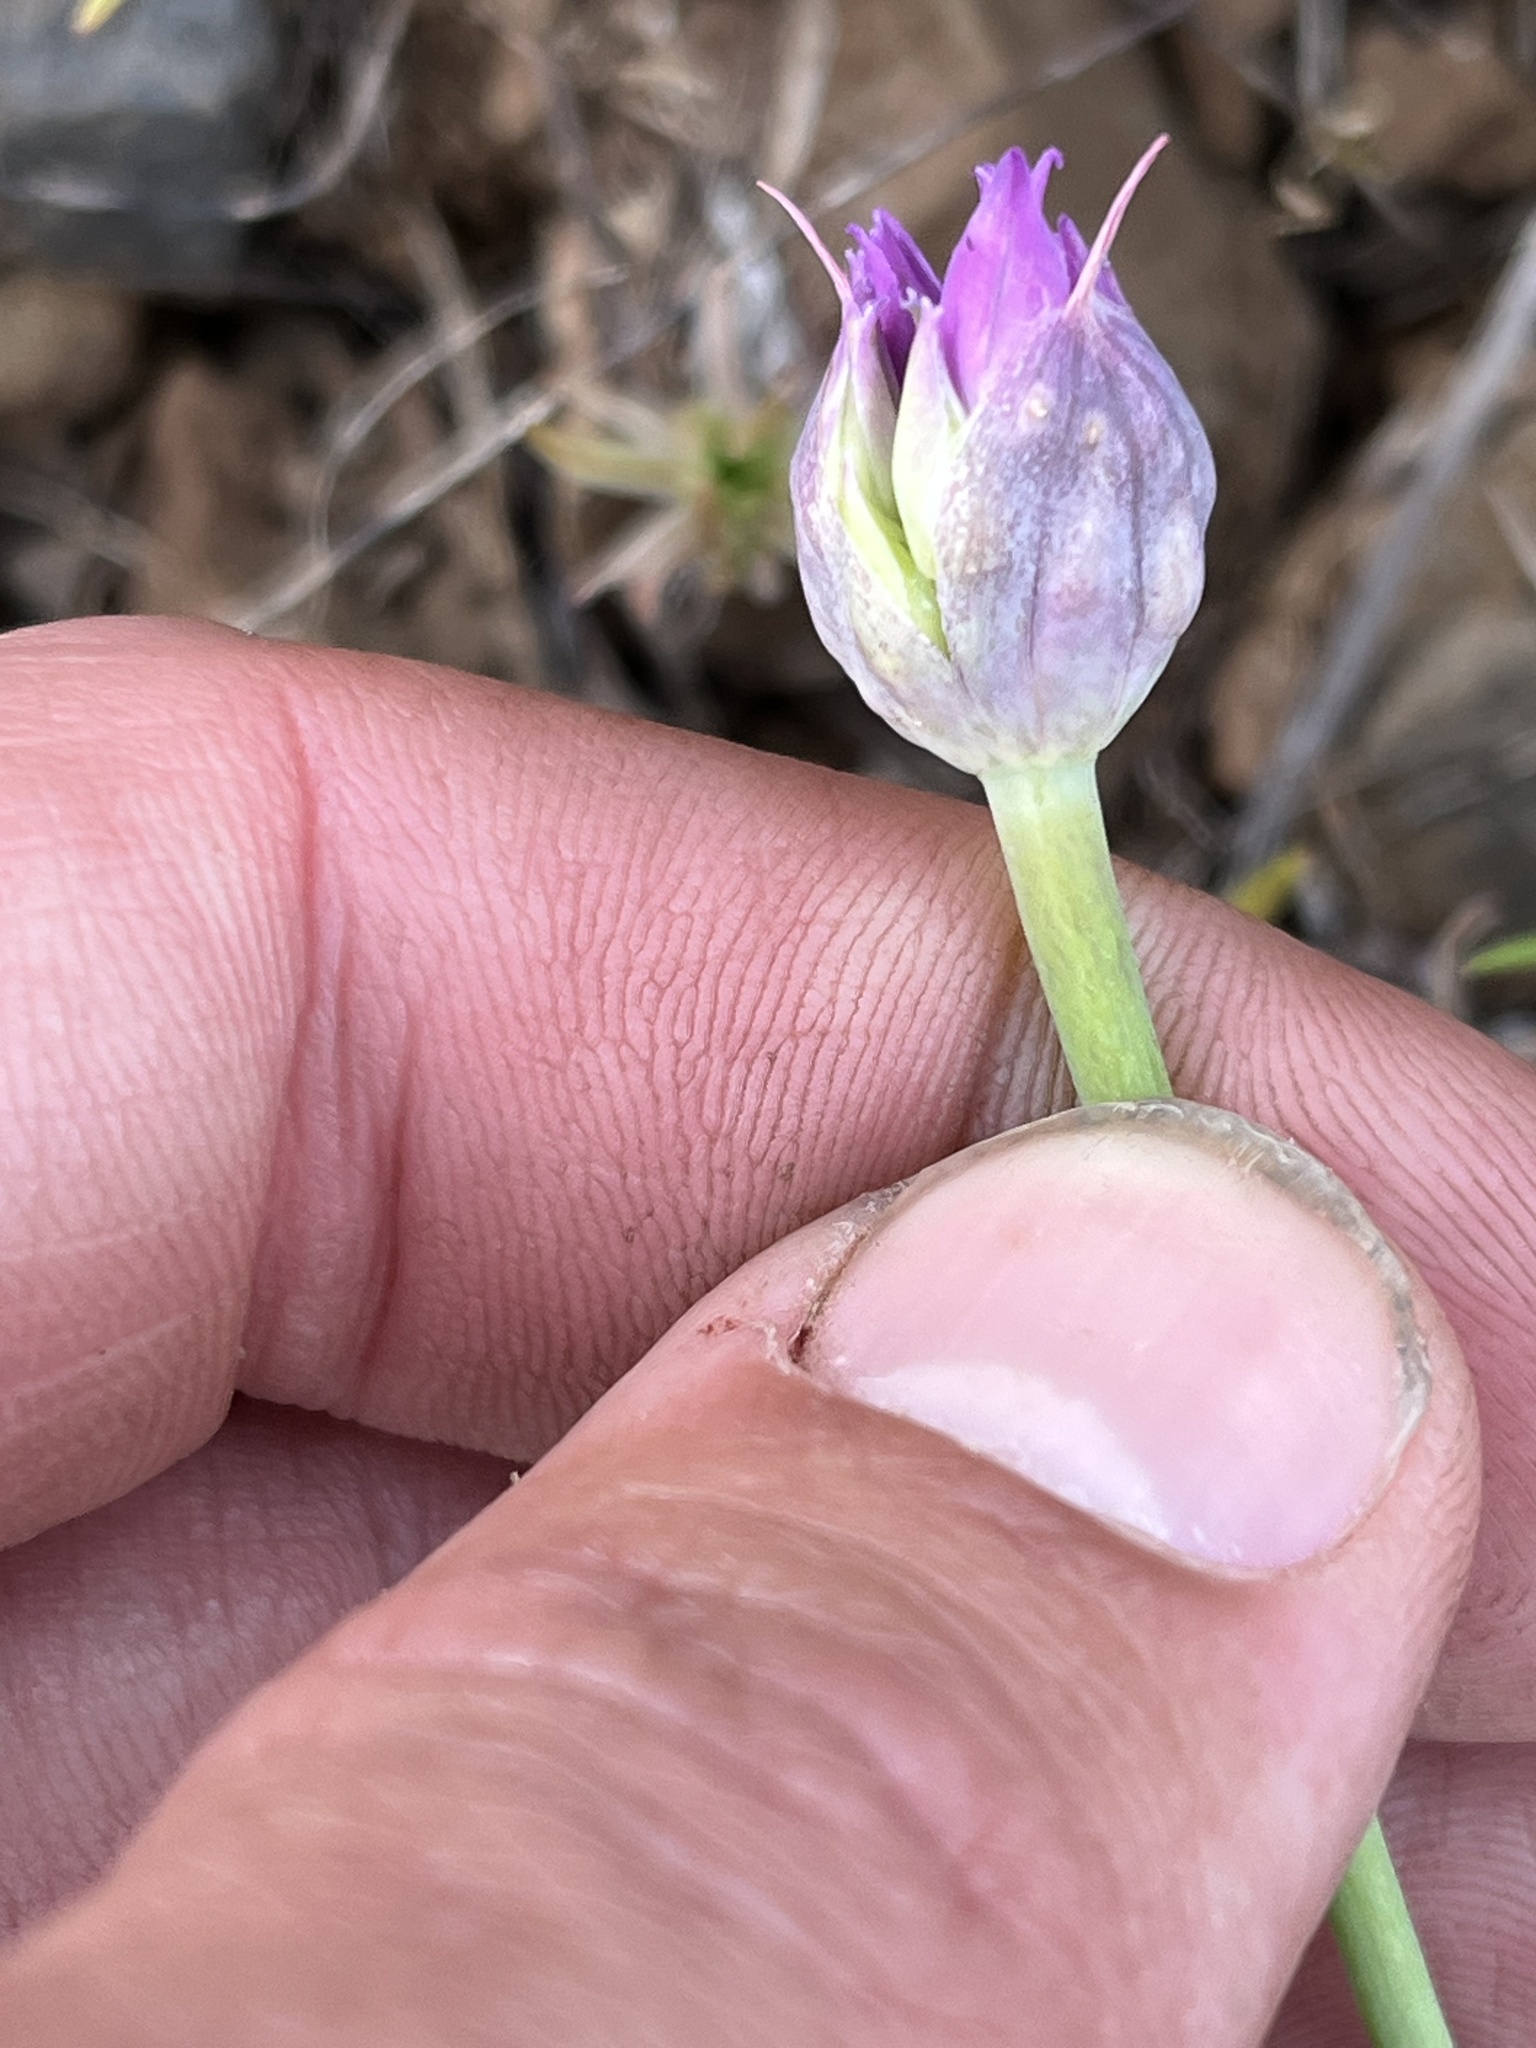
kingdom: Plantae
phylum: Tracheophyta
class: Liliopsida
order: Asparagales
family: Amaryllidaceae
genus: Allium
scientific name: Allium acuminatum
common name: Hooker's onion
